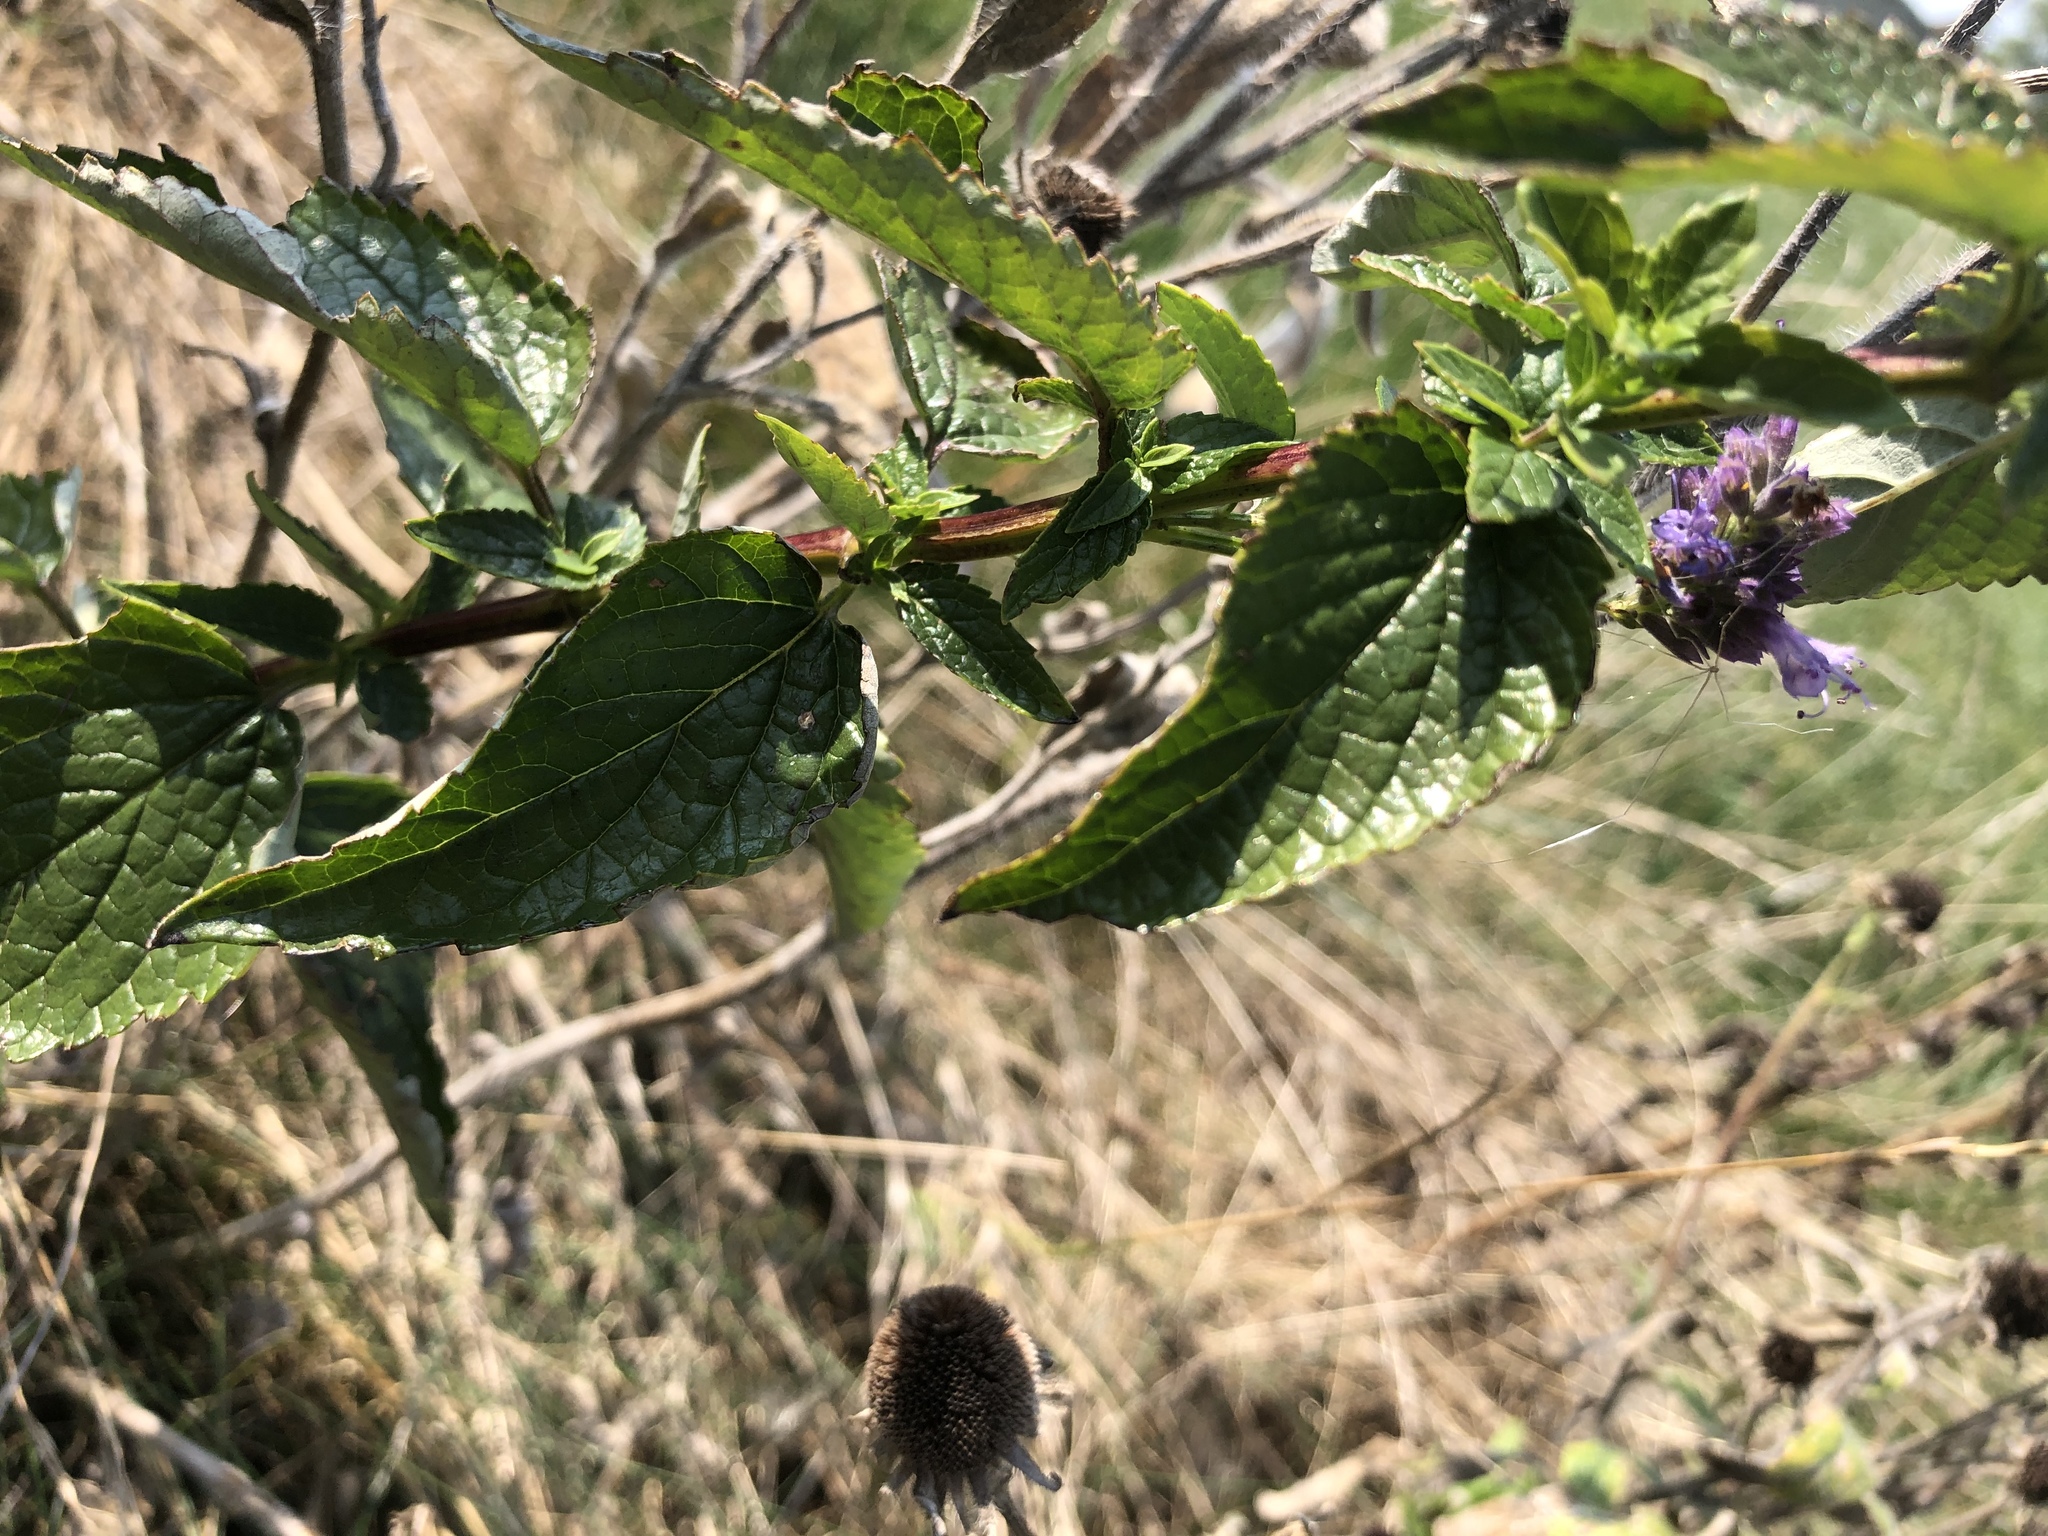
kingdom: Plantae
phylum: Tracheophyta
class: Magnoliopsida
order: Lamiales
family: Lamiaceae
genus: Agastache
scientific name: Agastache scrophulariifolia
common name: Figwort giant hyssop
